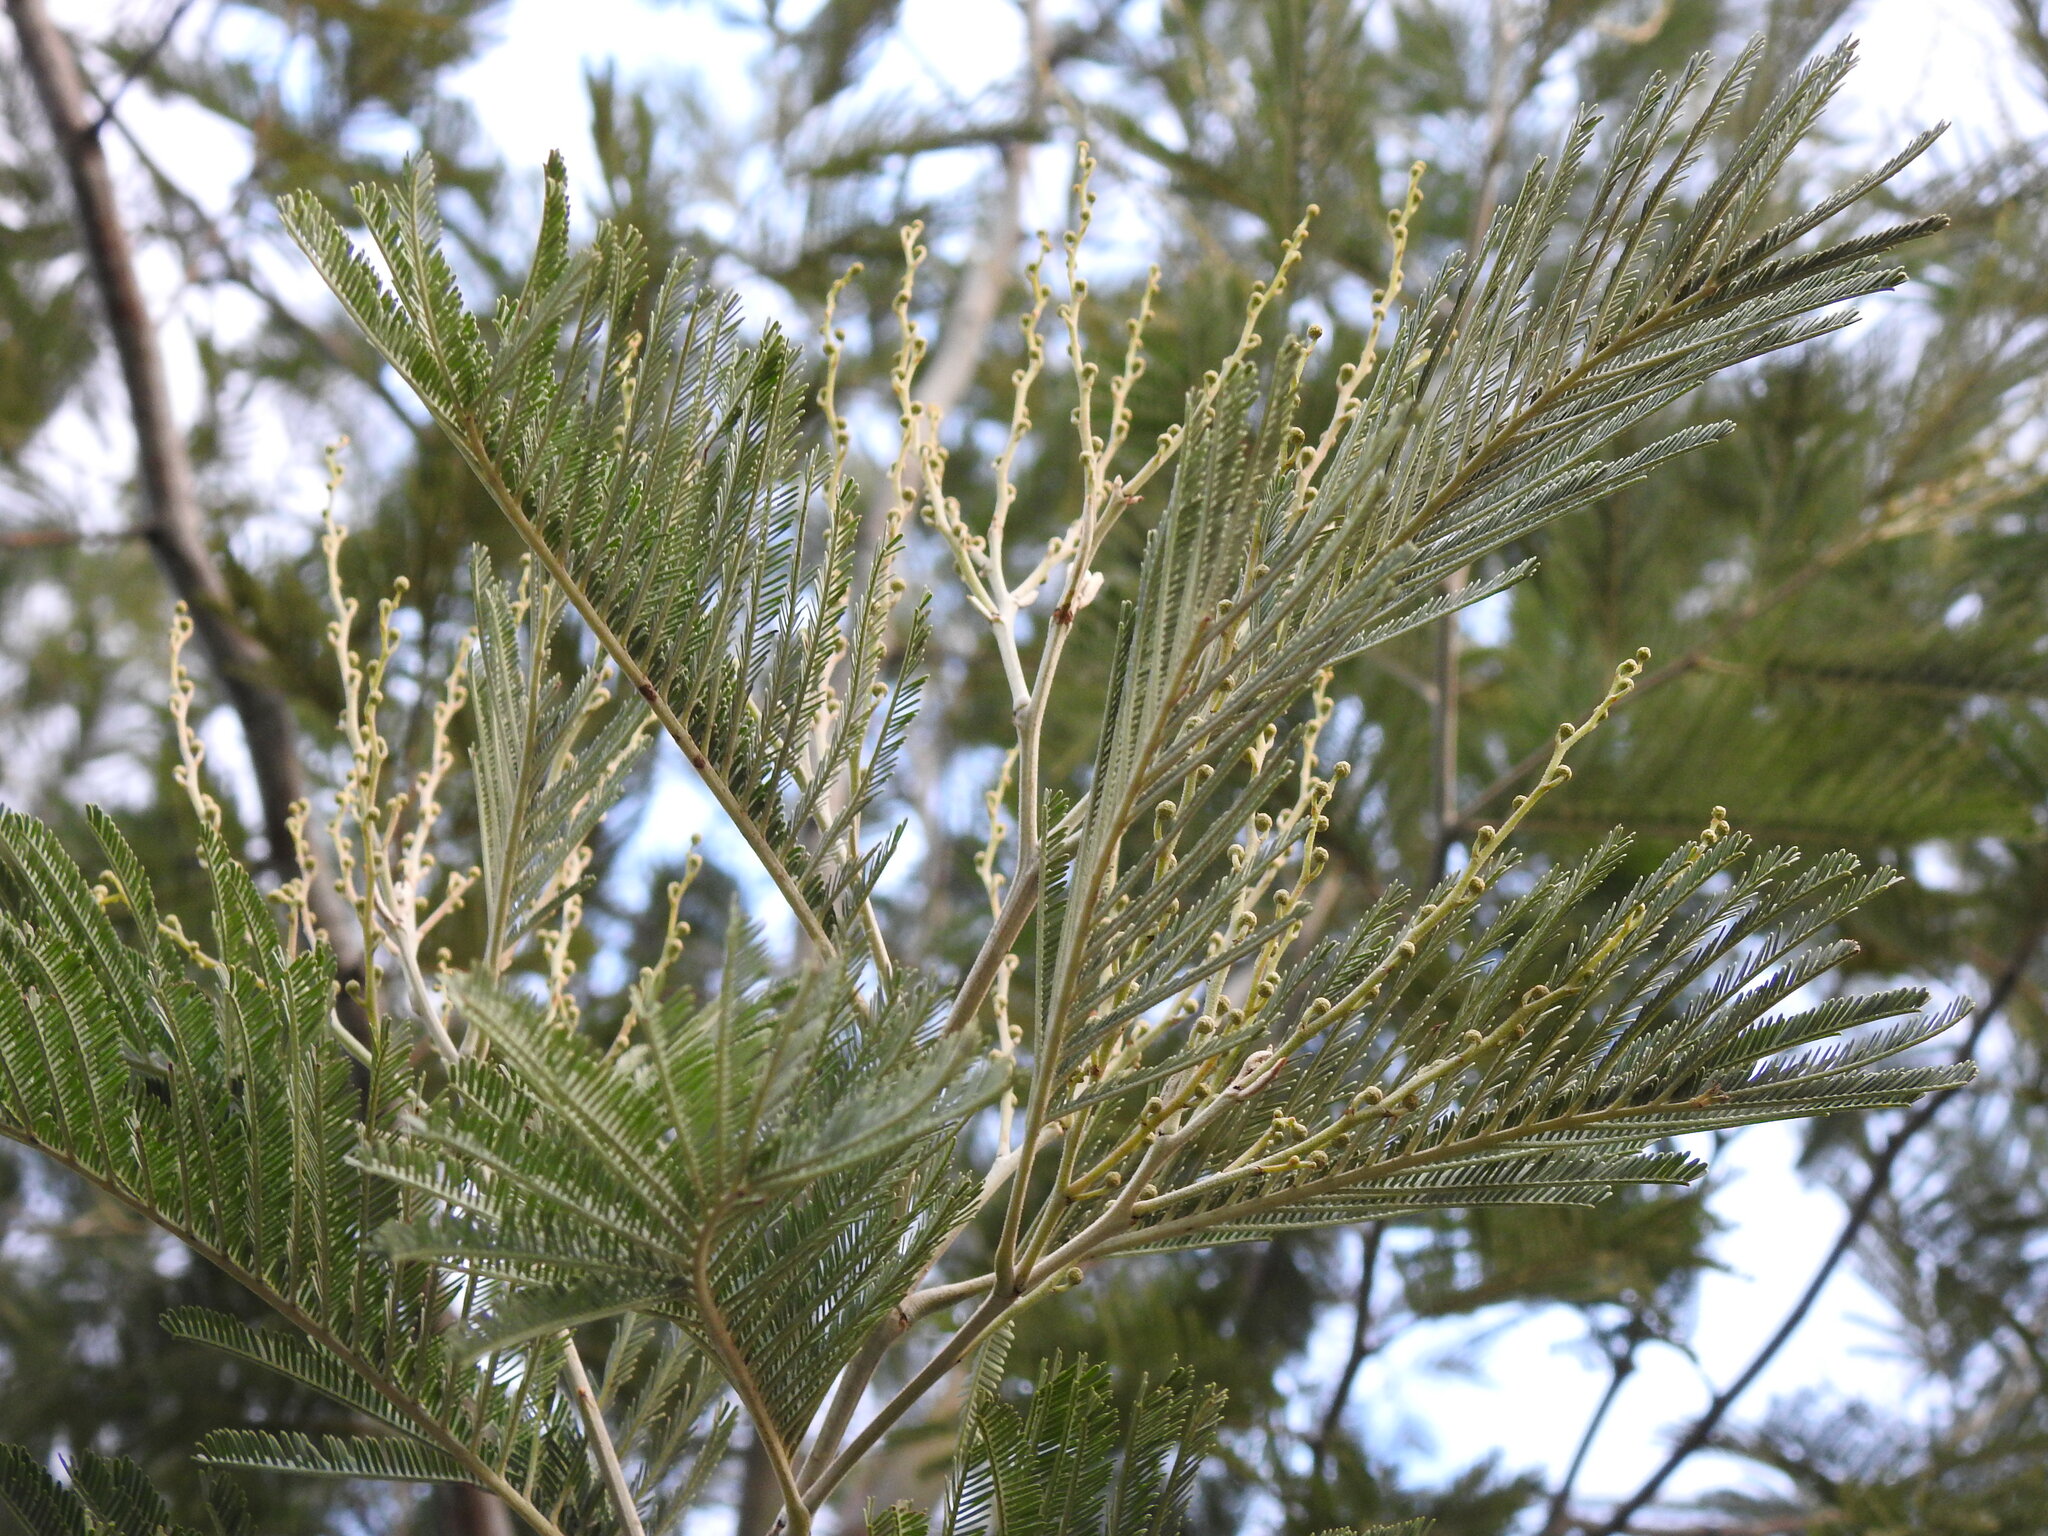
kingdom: Plantae
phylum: Tracheophyta
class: Magnoliopsida
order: Fabales
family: Fabaceae
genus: Acacia
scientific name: Acacia dealbata
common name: Silver wattle
